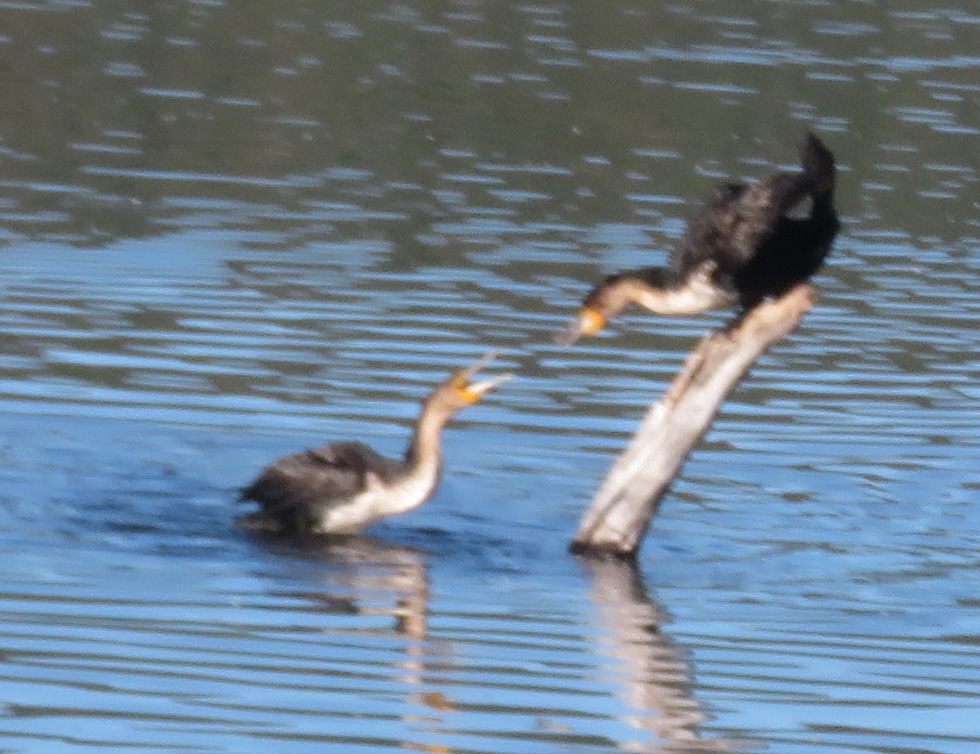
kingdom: Animalia
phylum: Chordata
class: Aves
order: Suliformes
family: Phalacrocoracidae
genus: Phalacrocorax
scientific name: Phalacrocorax carbo
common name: Great cormorant
